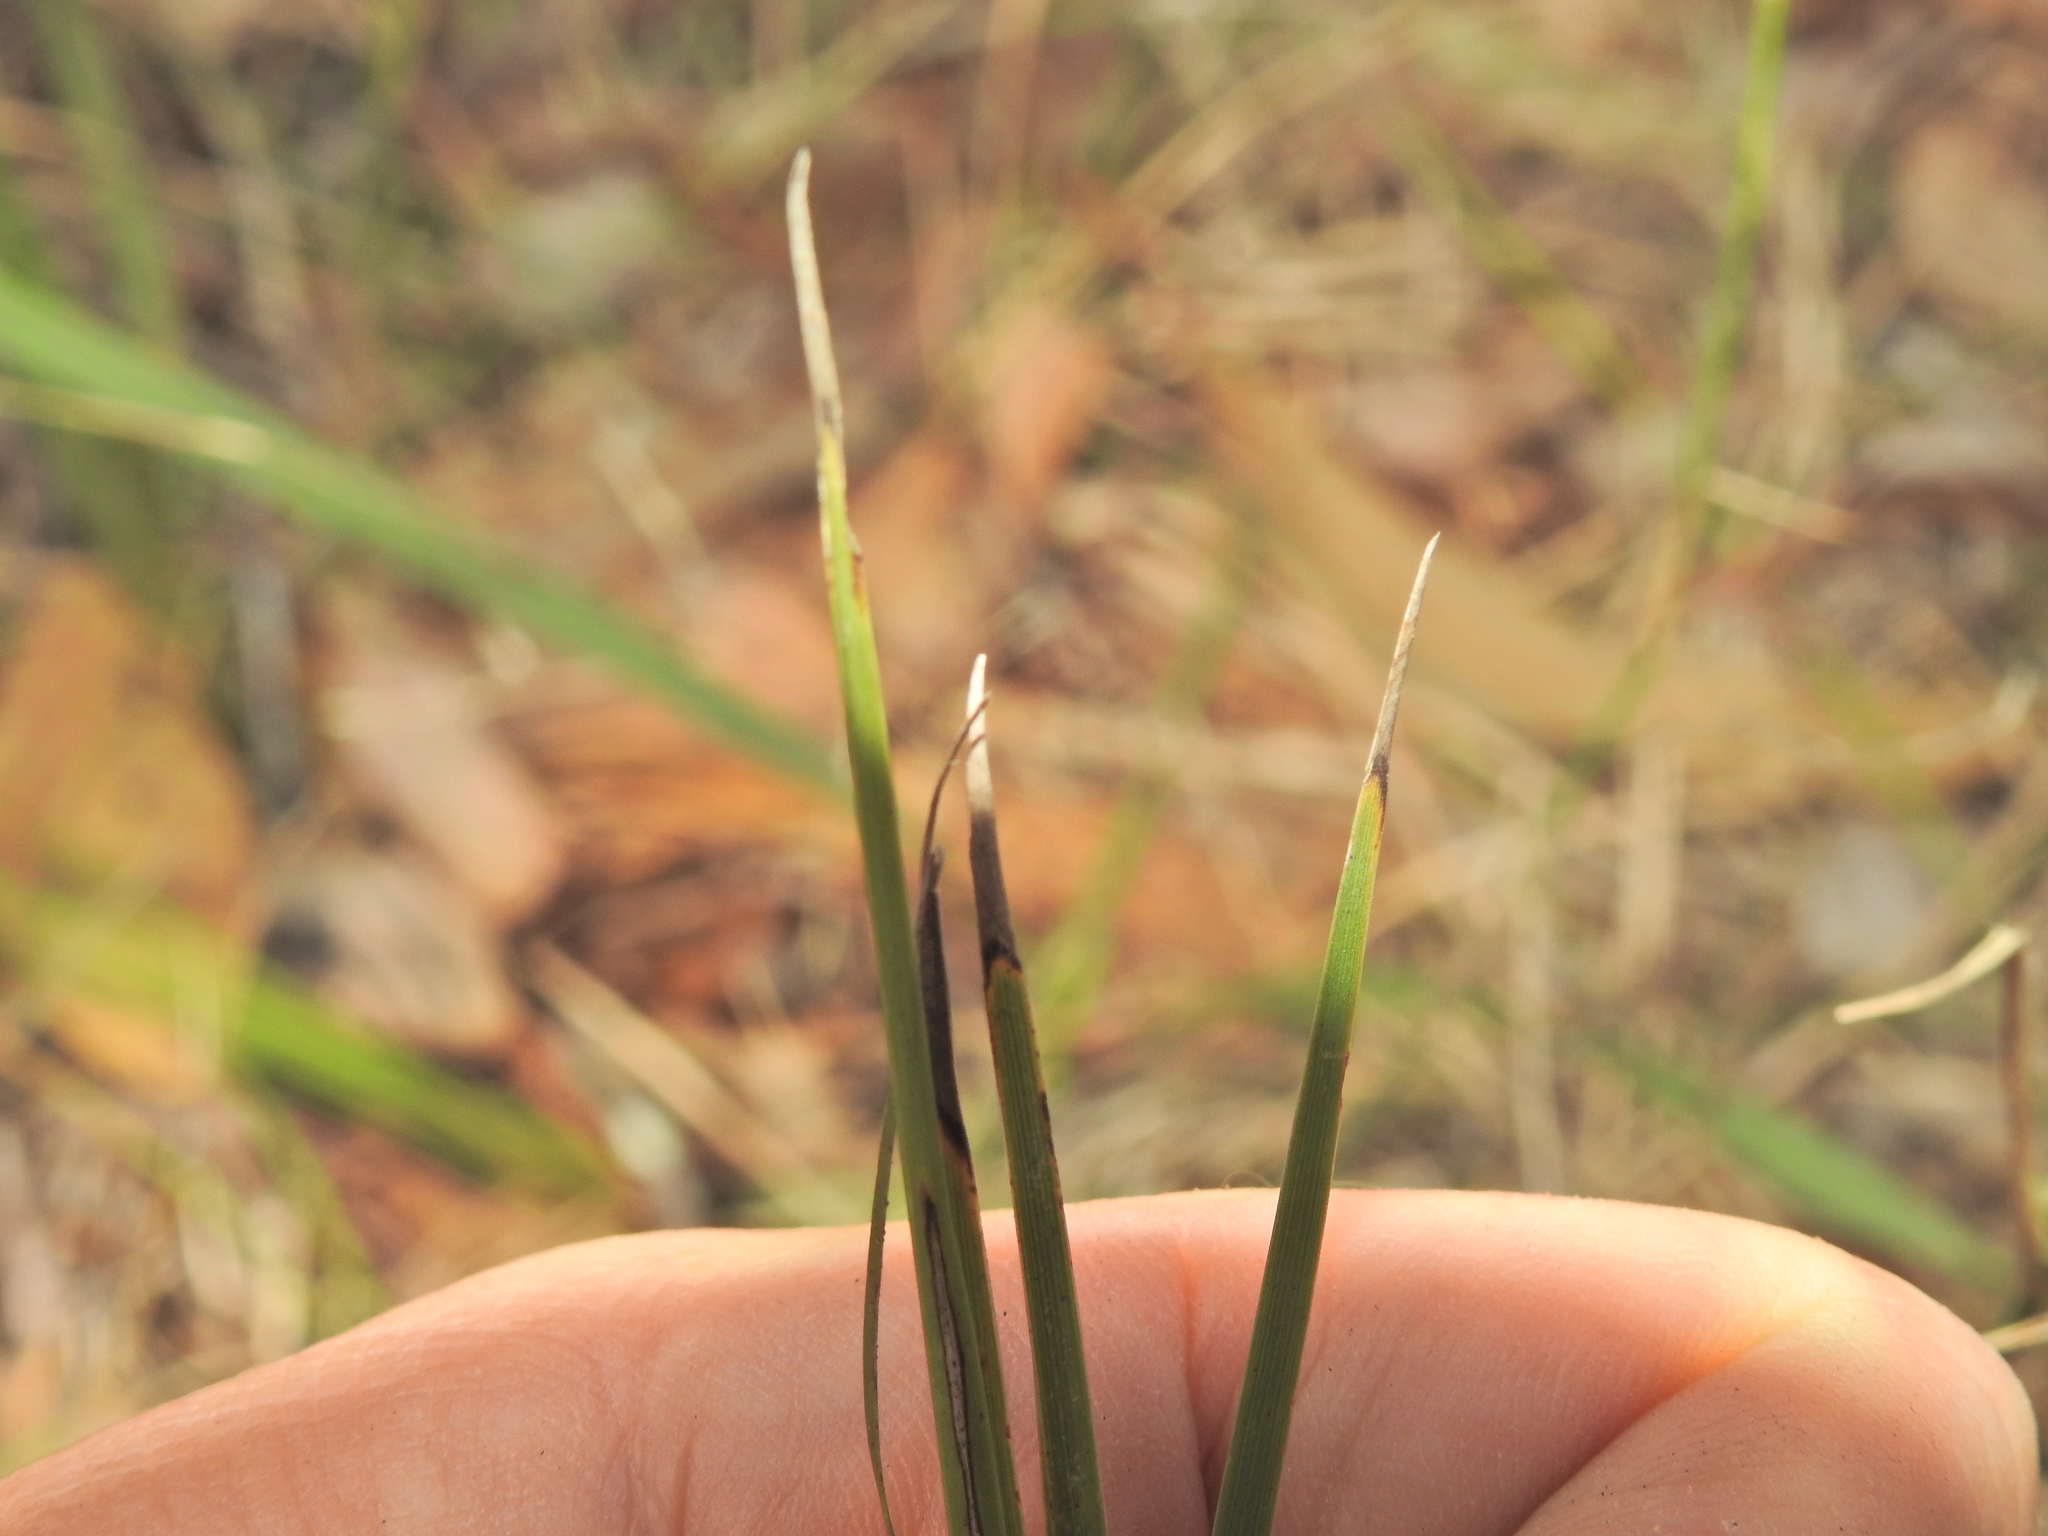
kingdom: Plantae
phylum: Tracheophyta
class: Liliopsida
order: Asparagales
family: Asparagaceae
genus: Lomandra
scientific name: Lomandra laxa
